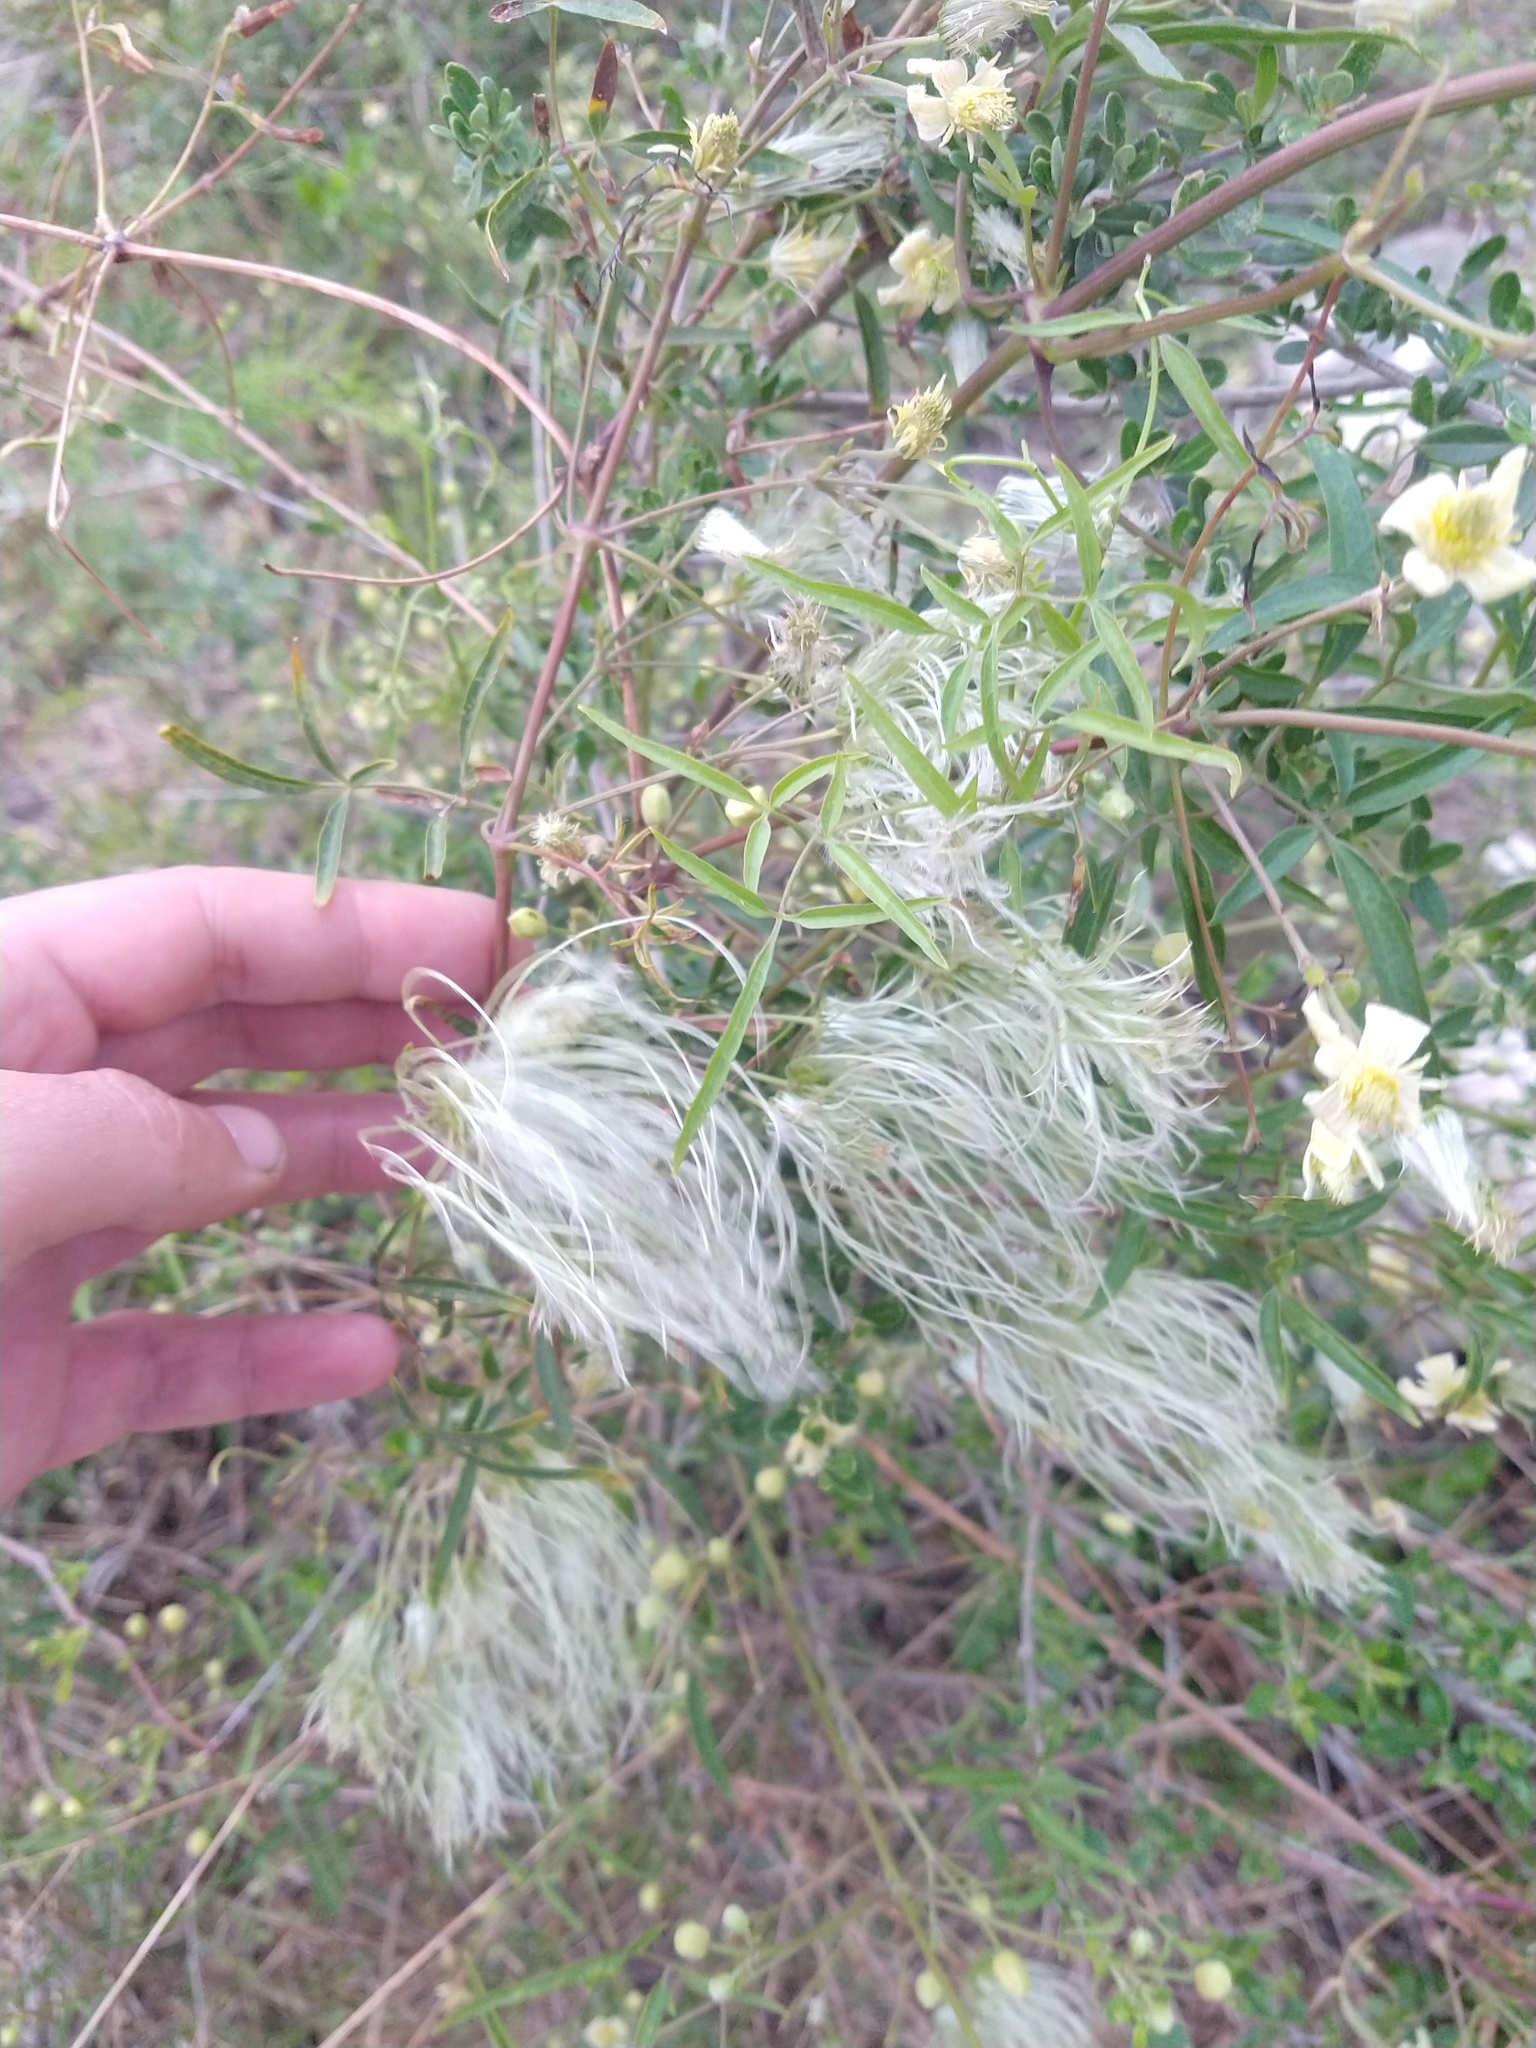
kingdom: Plantae
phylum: Tracheophyta
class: Magnoliopsida
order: Ranunculales
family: Ranunculaceae
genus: Clematis
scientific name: Clematis montevidensis
